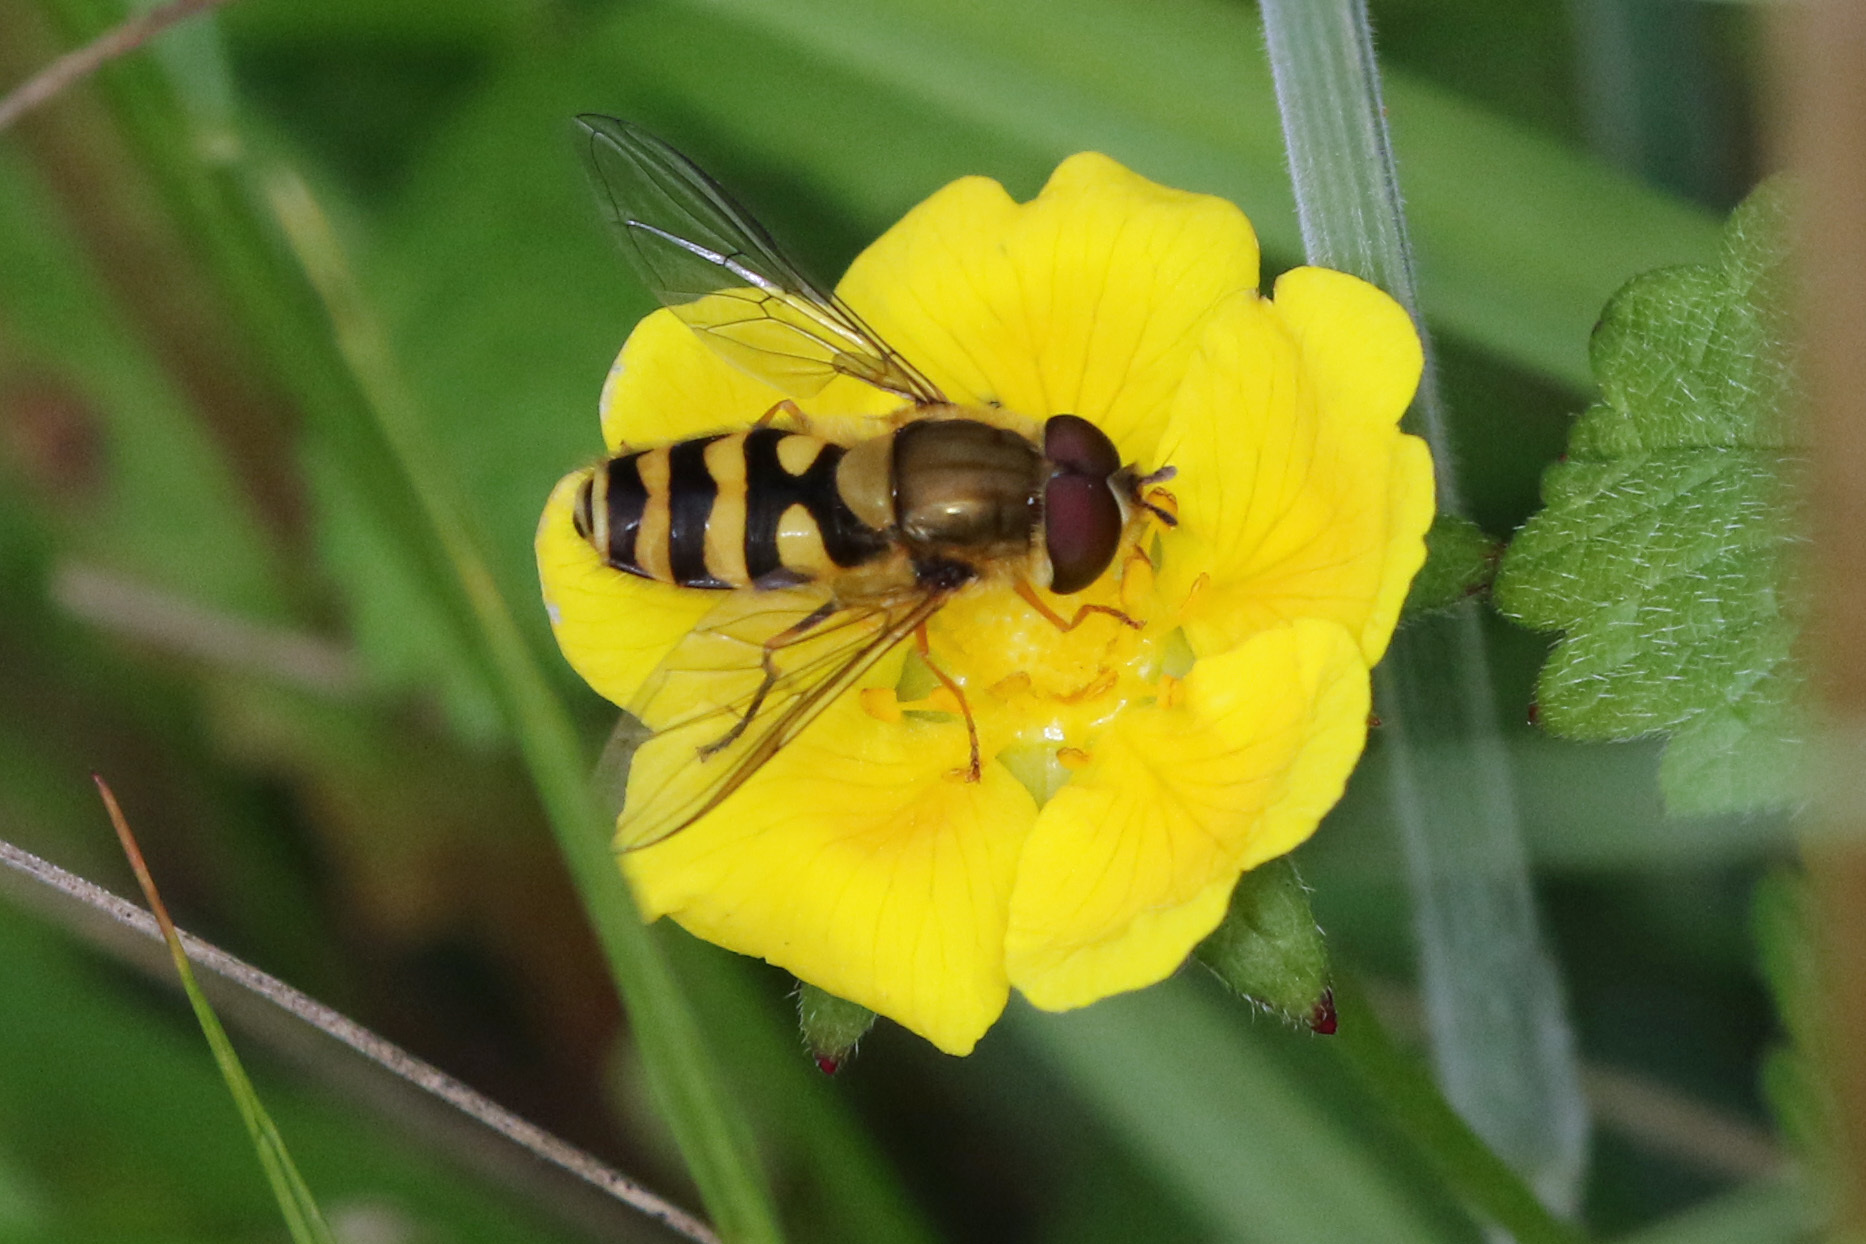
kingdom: Animalia
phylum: Arthropoda
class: Insecta
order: Diptera
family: Syrphidae
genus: Syrphus
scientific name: Syrphus
